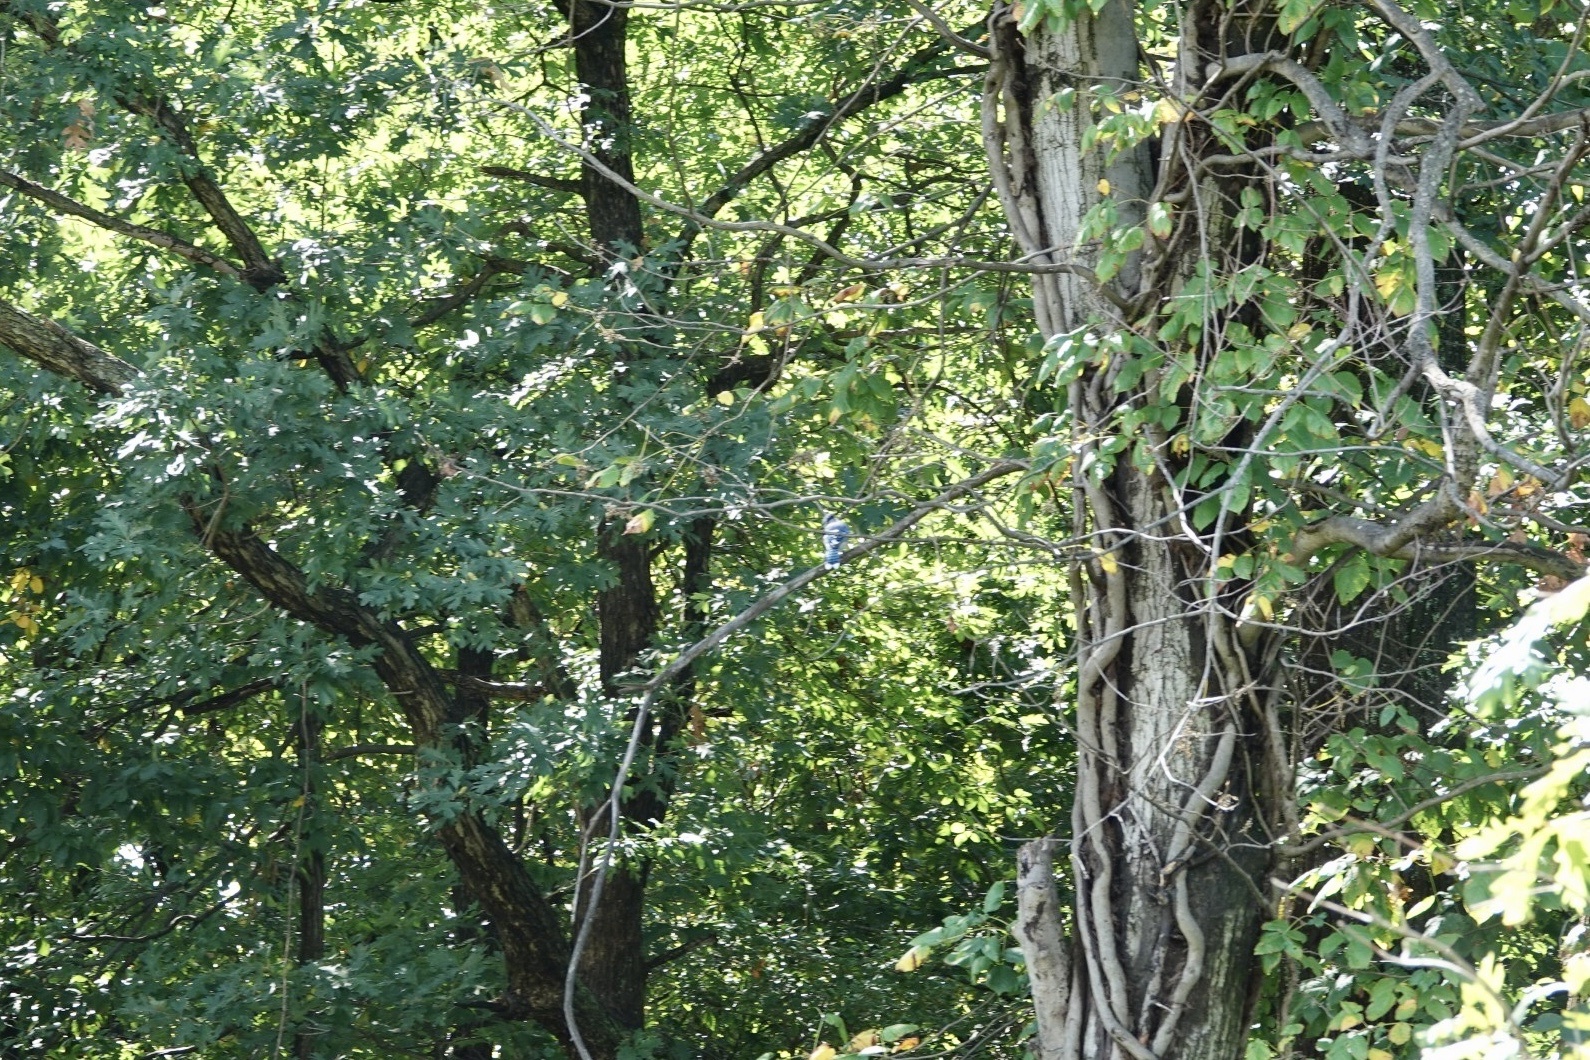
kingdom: Animalia
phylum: Chordata
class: Aves
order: Passeriformes
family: Corvidae
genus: Cyanocitta
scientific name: Cyanocitta cristata
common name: Blue jay
